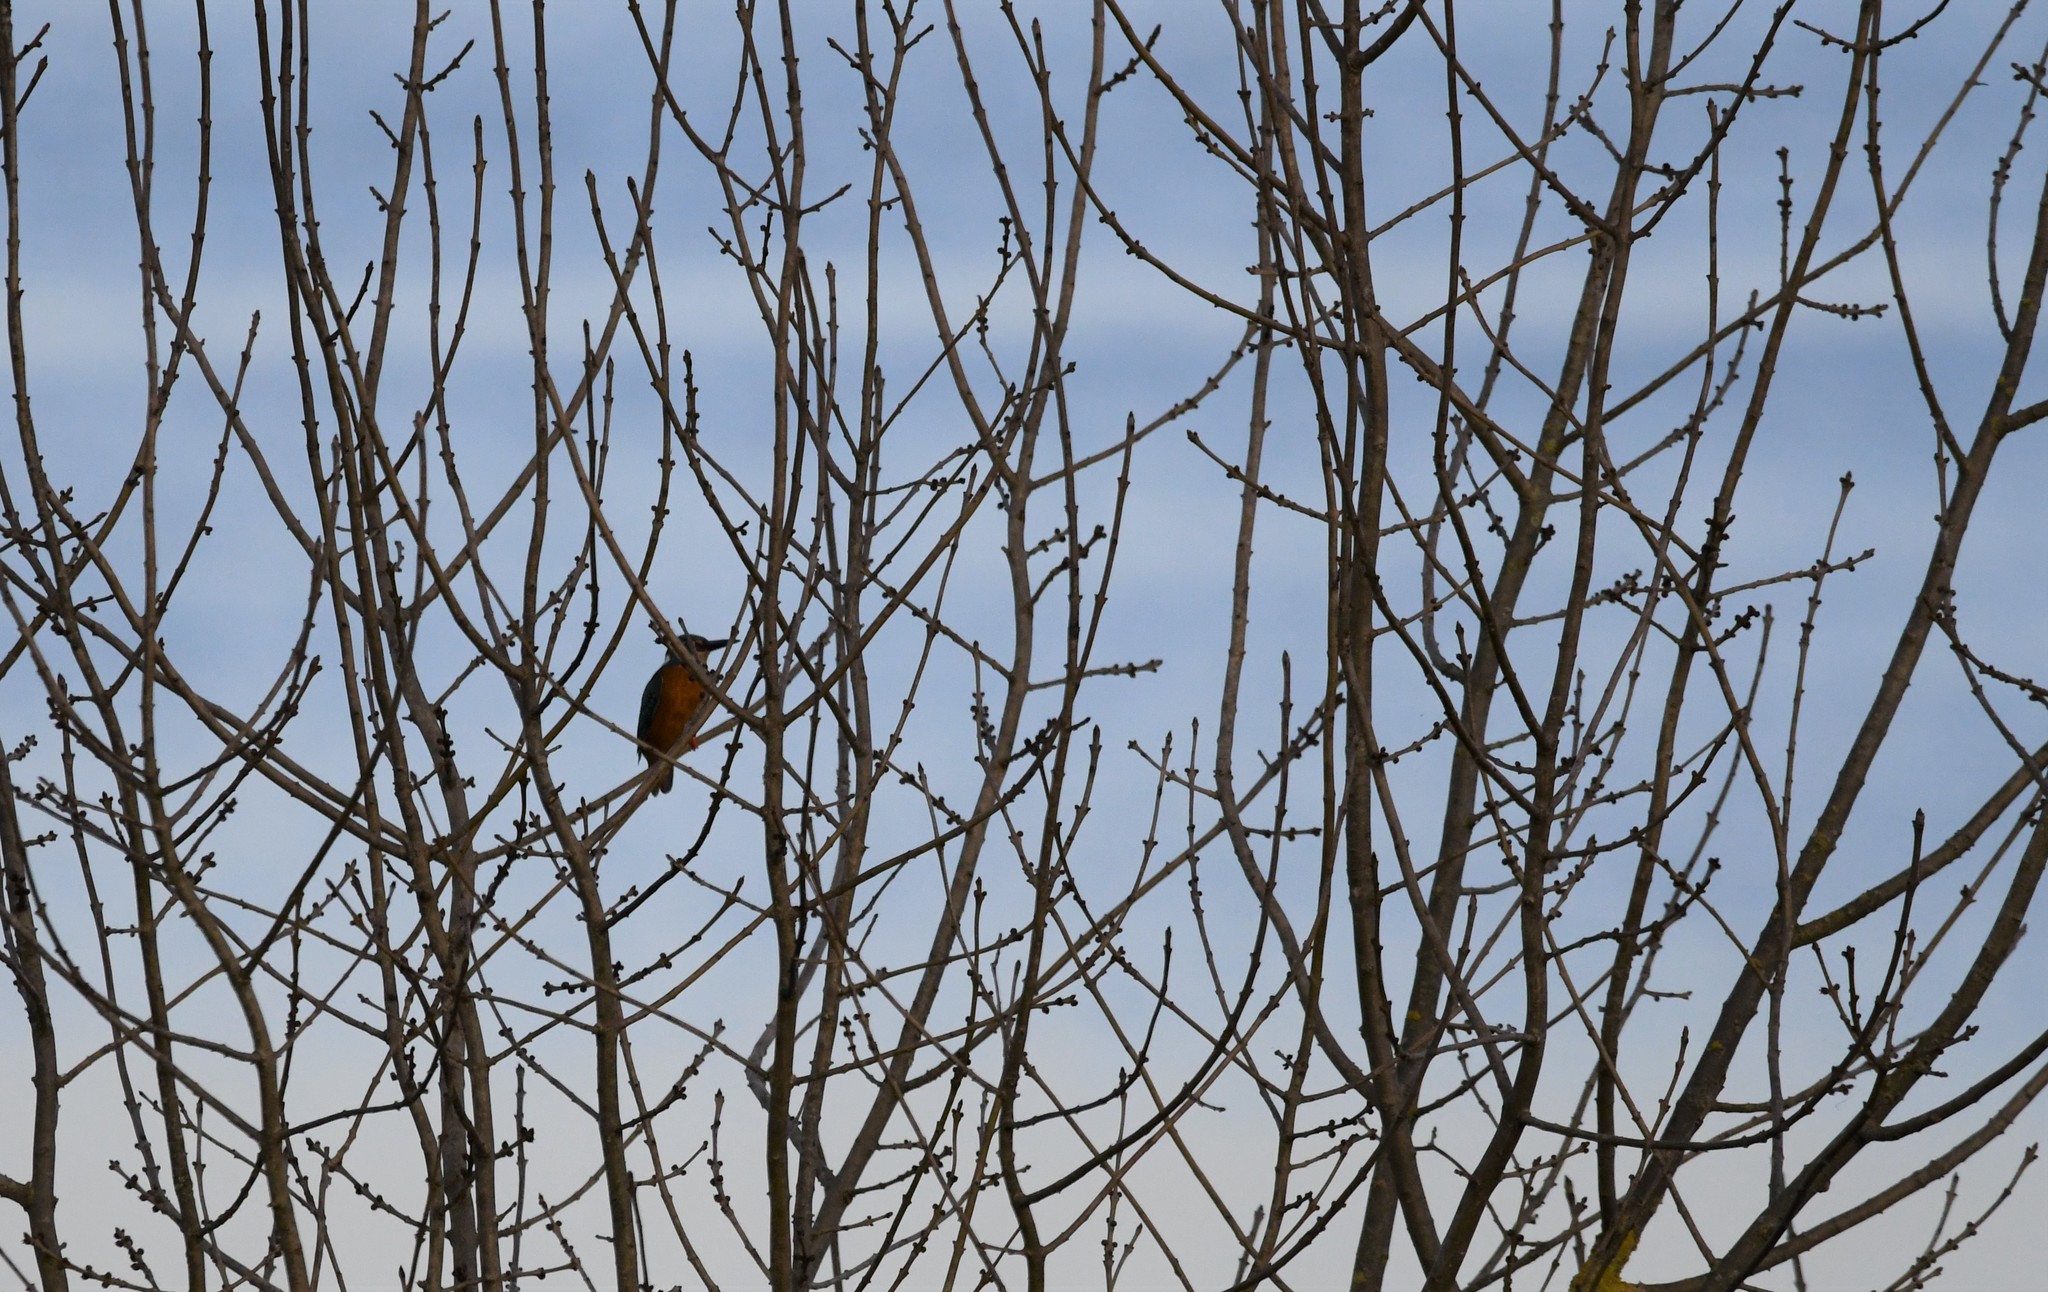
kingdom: Animalia
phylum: Chordata
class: Aves
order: Coraciiformes
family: Alcedinidae
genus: Alcedo
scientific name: Alcedo atthis
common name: Common kingfisher
